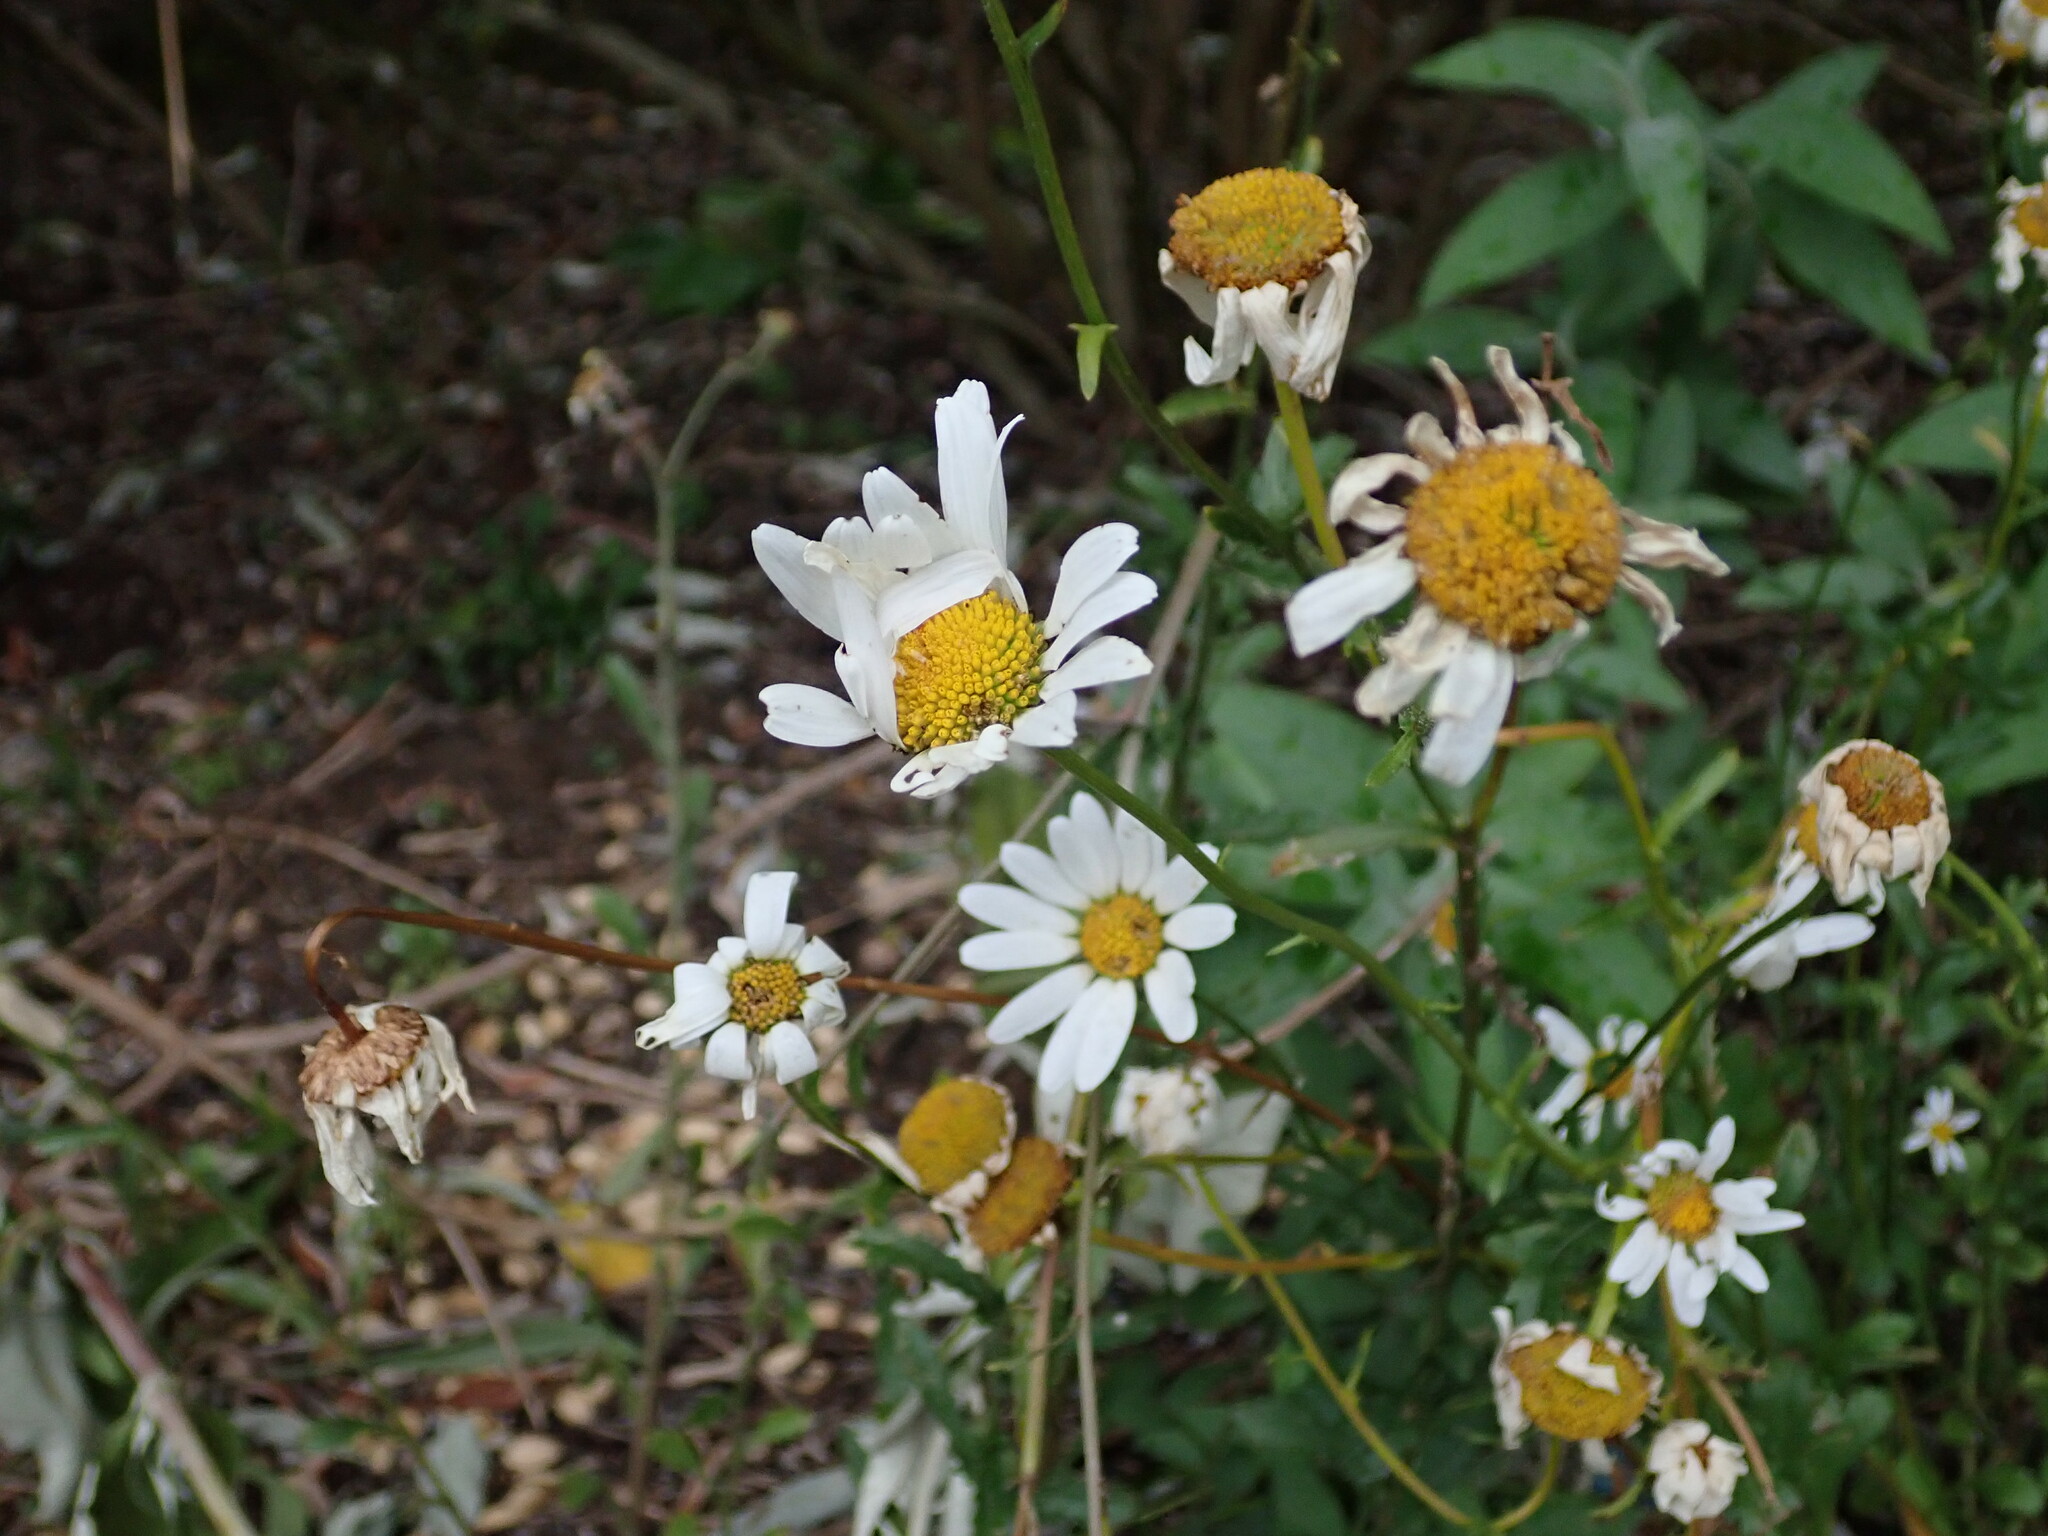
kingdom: Plantae
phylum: Tracheophyta
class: Magnoliopsida
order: Asterales
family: Asteraceae
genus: Leucanthemum
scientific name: Leucanthemum vulgare
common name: Oxeye daisy
